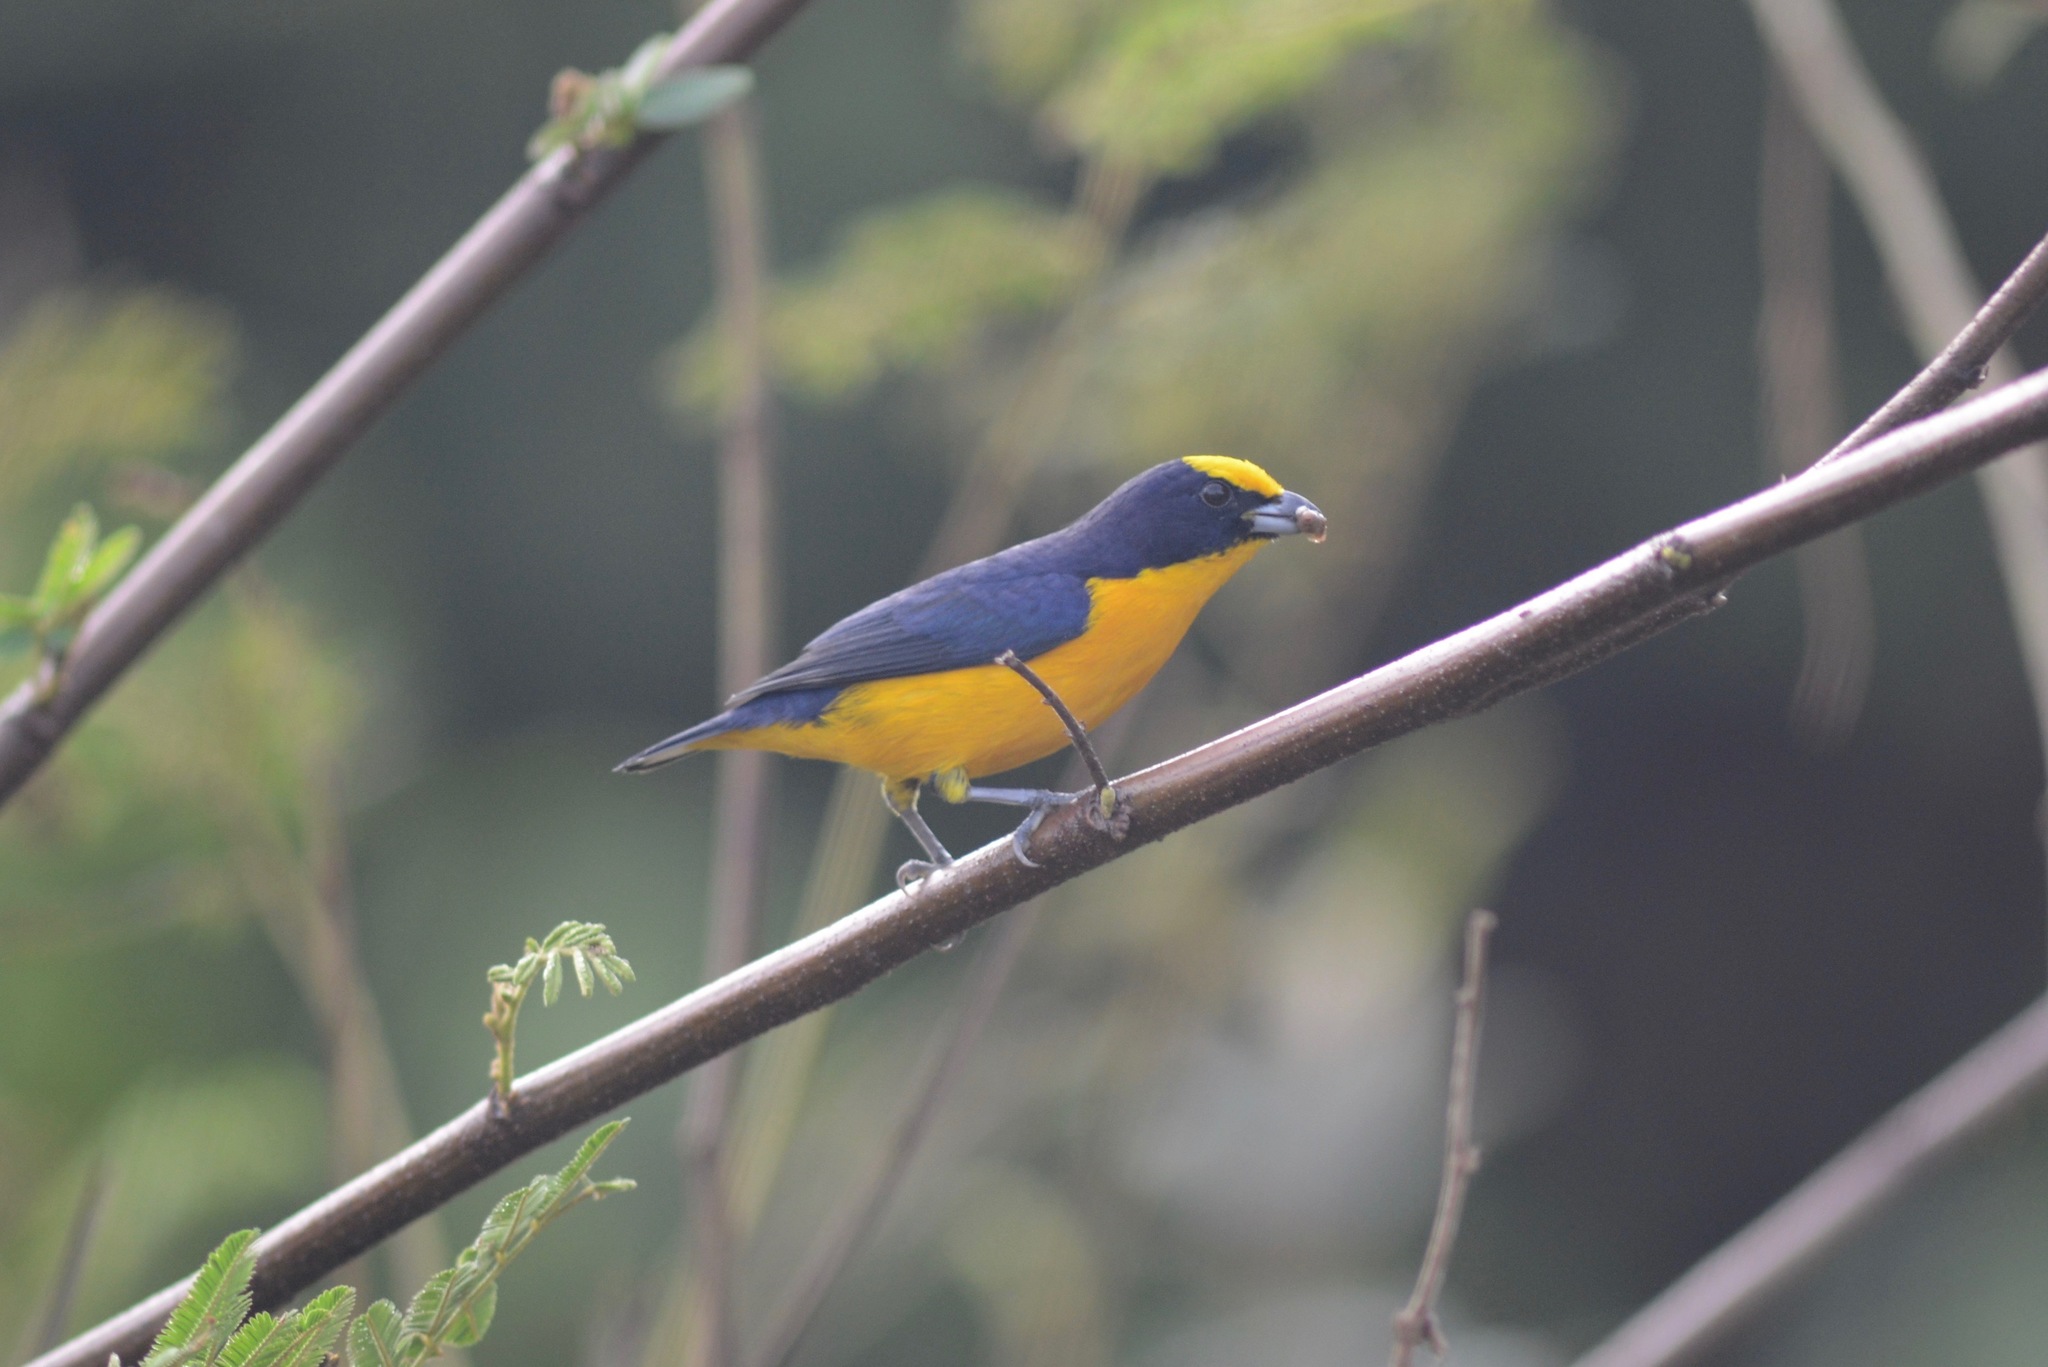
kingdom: Animalia
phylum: Chordata
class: Aves
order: Passeriformes
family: Fringillidae
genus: Euphonia
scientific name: Euphonia laniirostris
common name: Thick-billed euphonia
